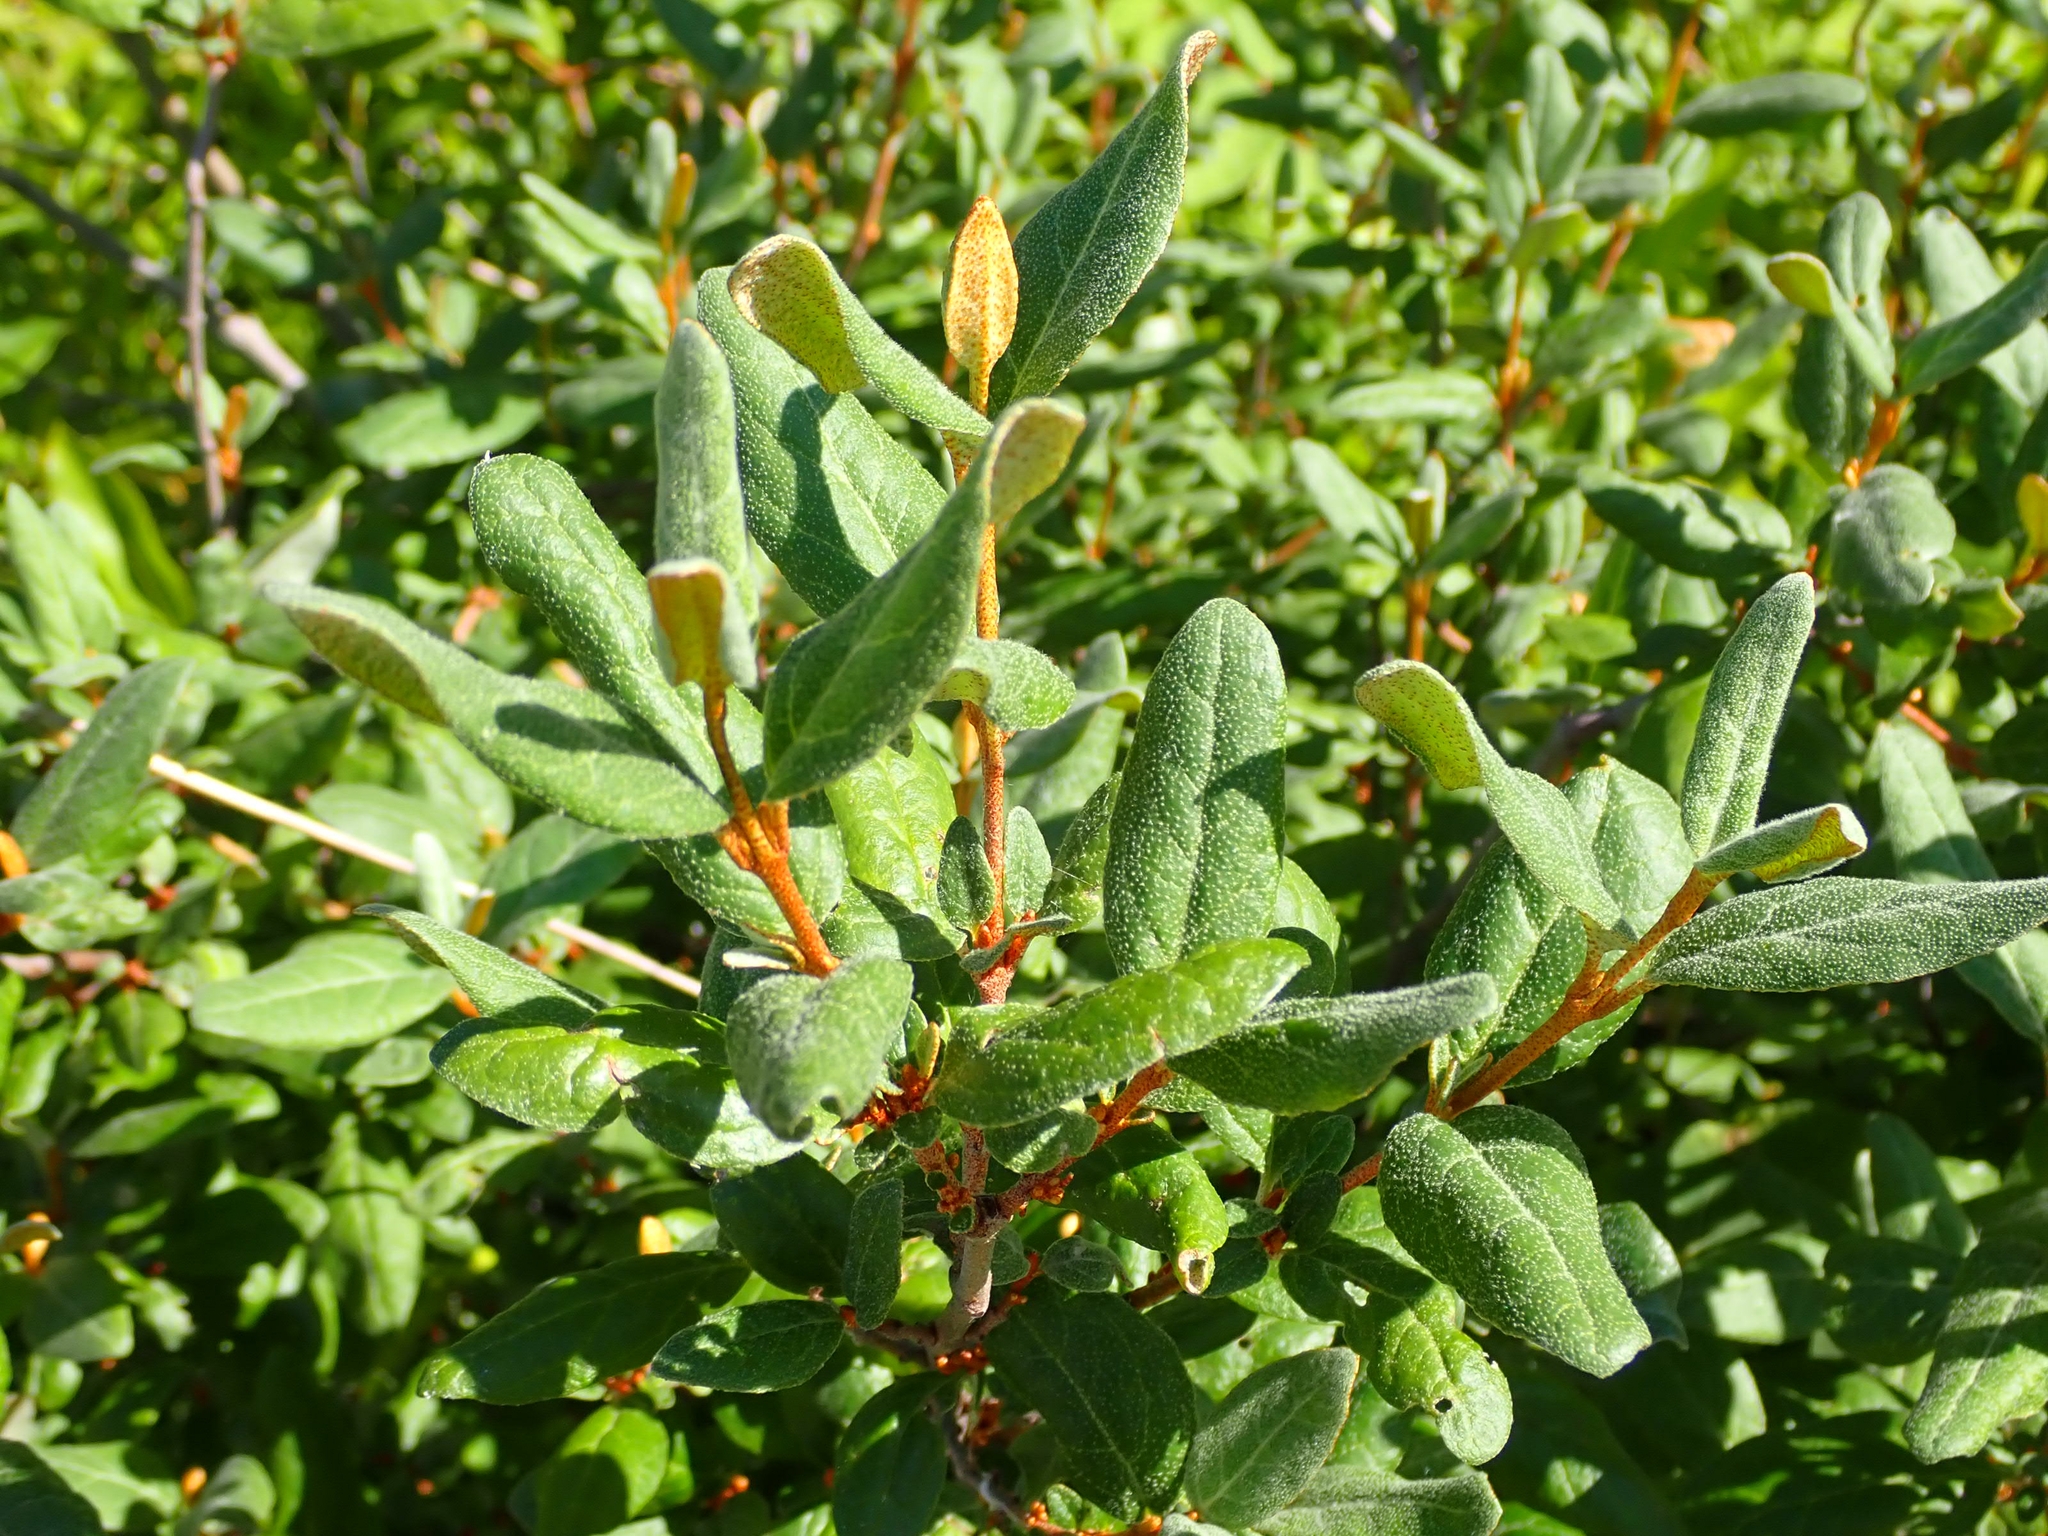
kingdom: Plantae
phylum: Tracheophyta
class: Magnoliopsida
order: Rosales
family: Elaeagnaceae
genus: Shepherdia
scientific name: Shepherdia canadensis
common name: Soapberry
